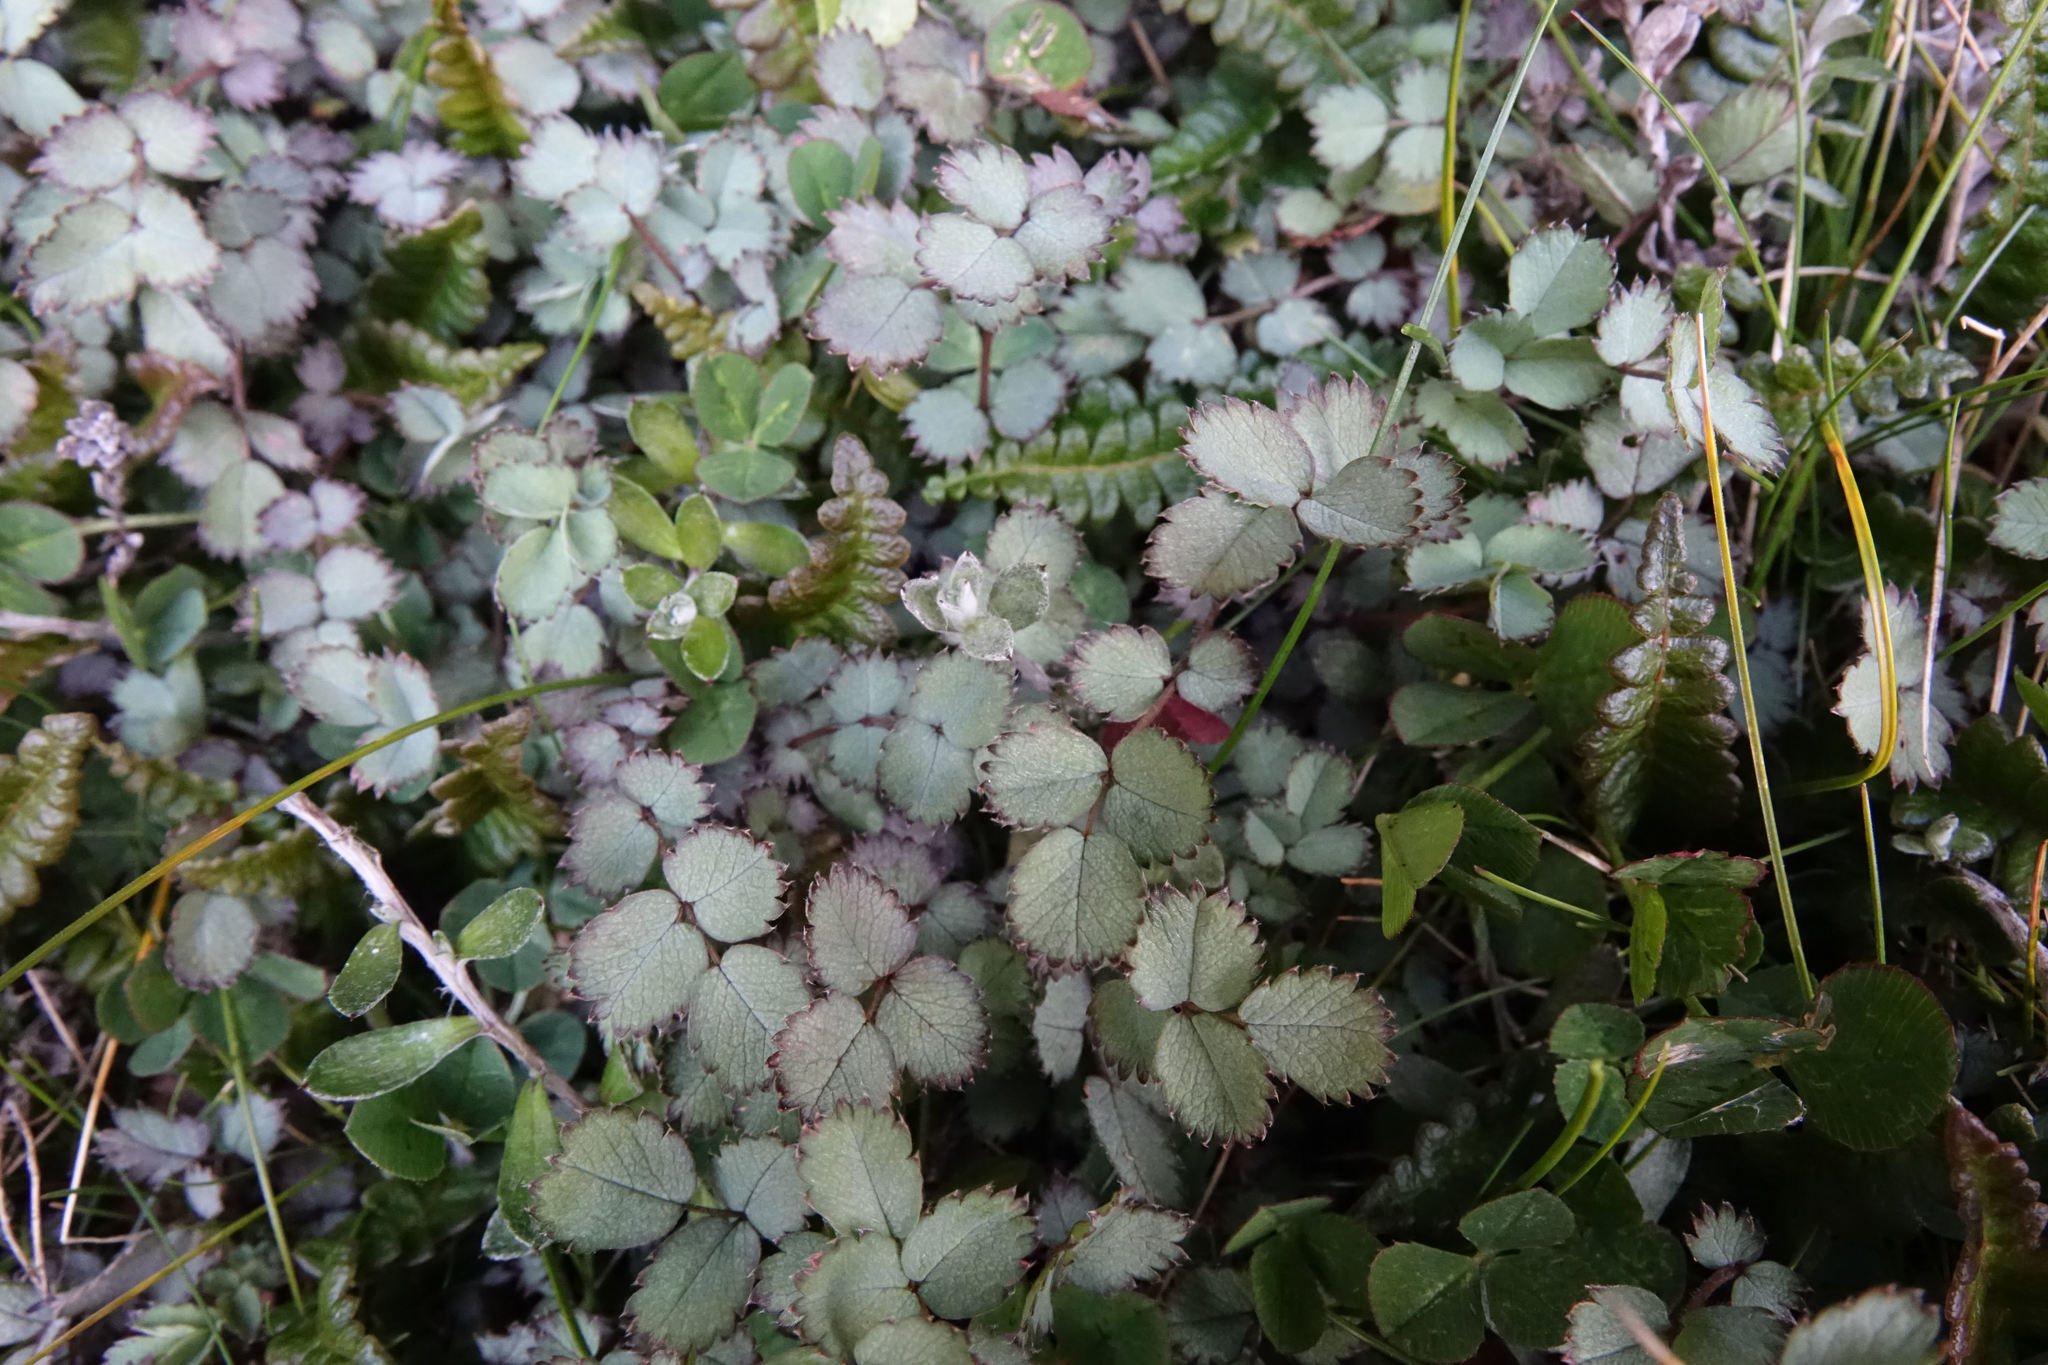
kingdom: Plantae
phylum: Tracheophyta
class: Magnoliopsida
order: Rosales
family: Rosaceae
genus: Acaena
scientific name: Acaena tesca
